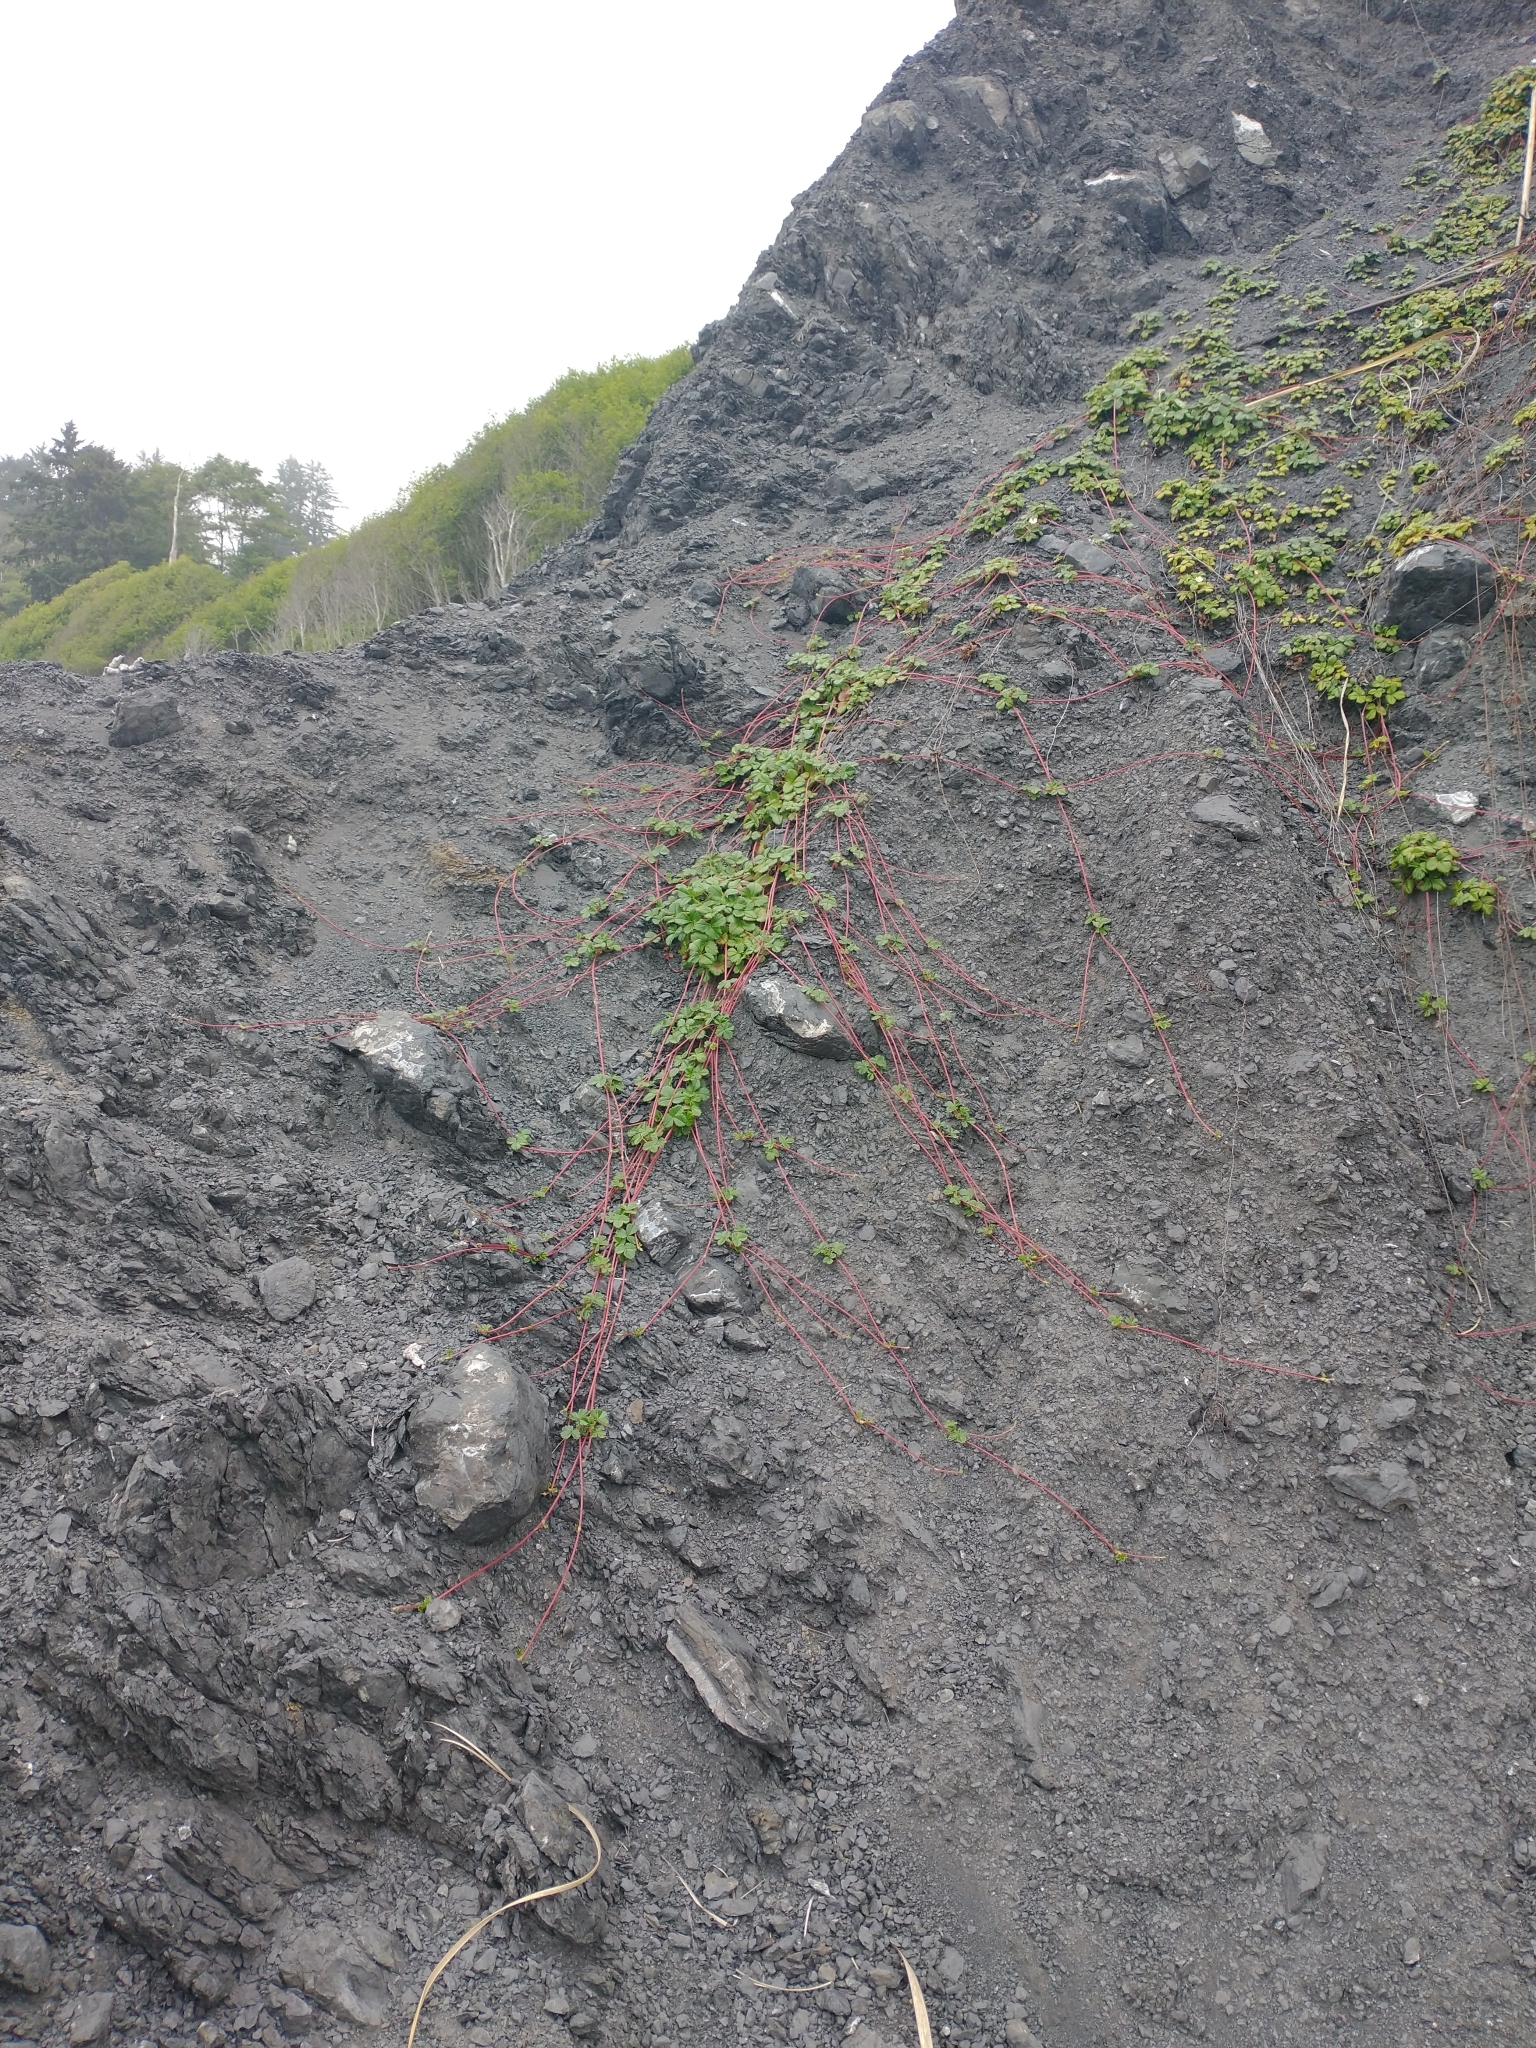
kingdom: Plantae
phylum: Tracheophyta
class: Magnoliopsida
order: Rosales
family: Rosaceae
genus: Fragaria
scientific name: Fragaria chiloensis
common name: Beach strawberry
